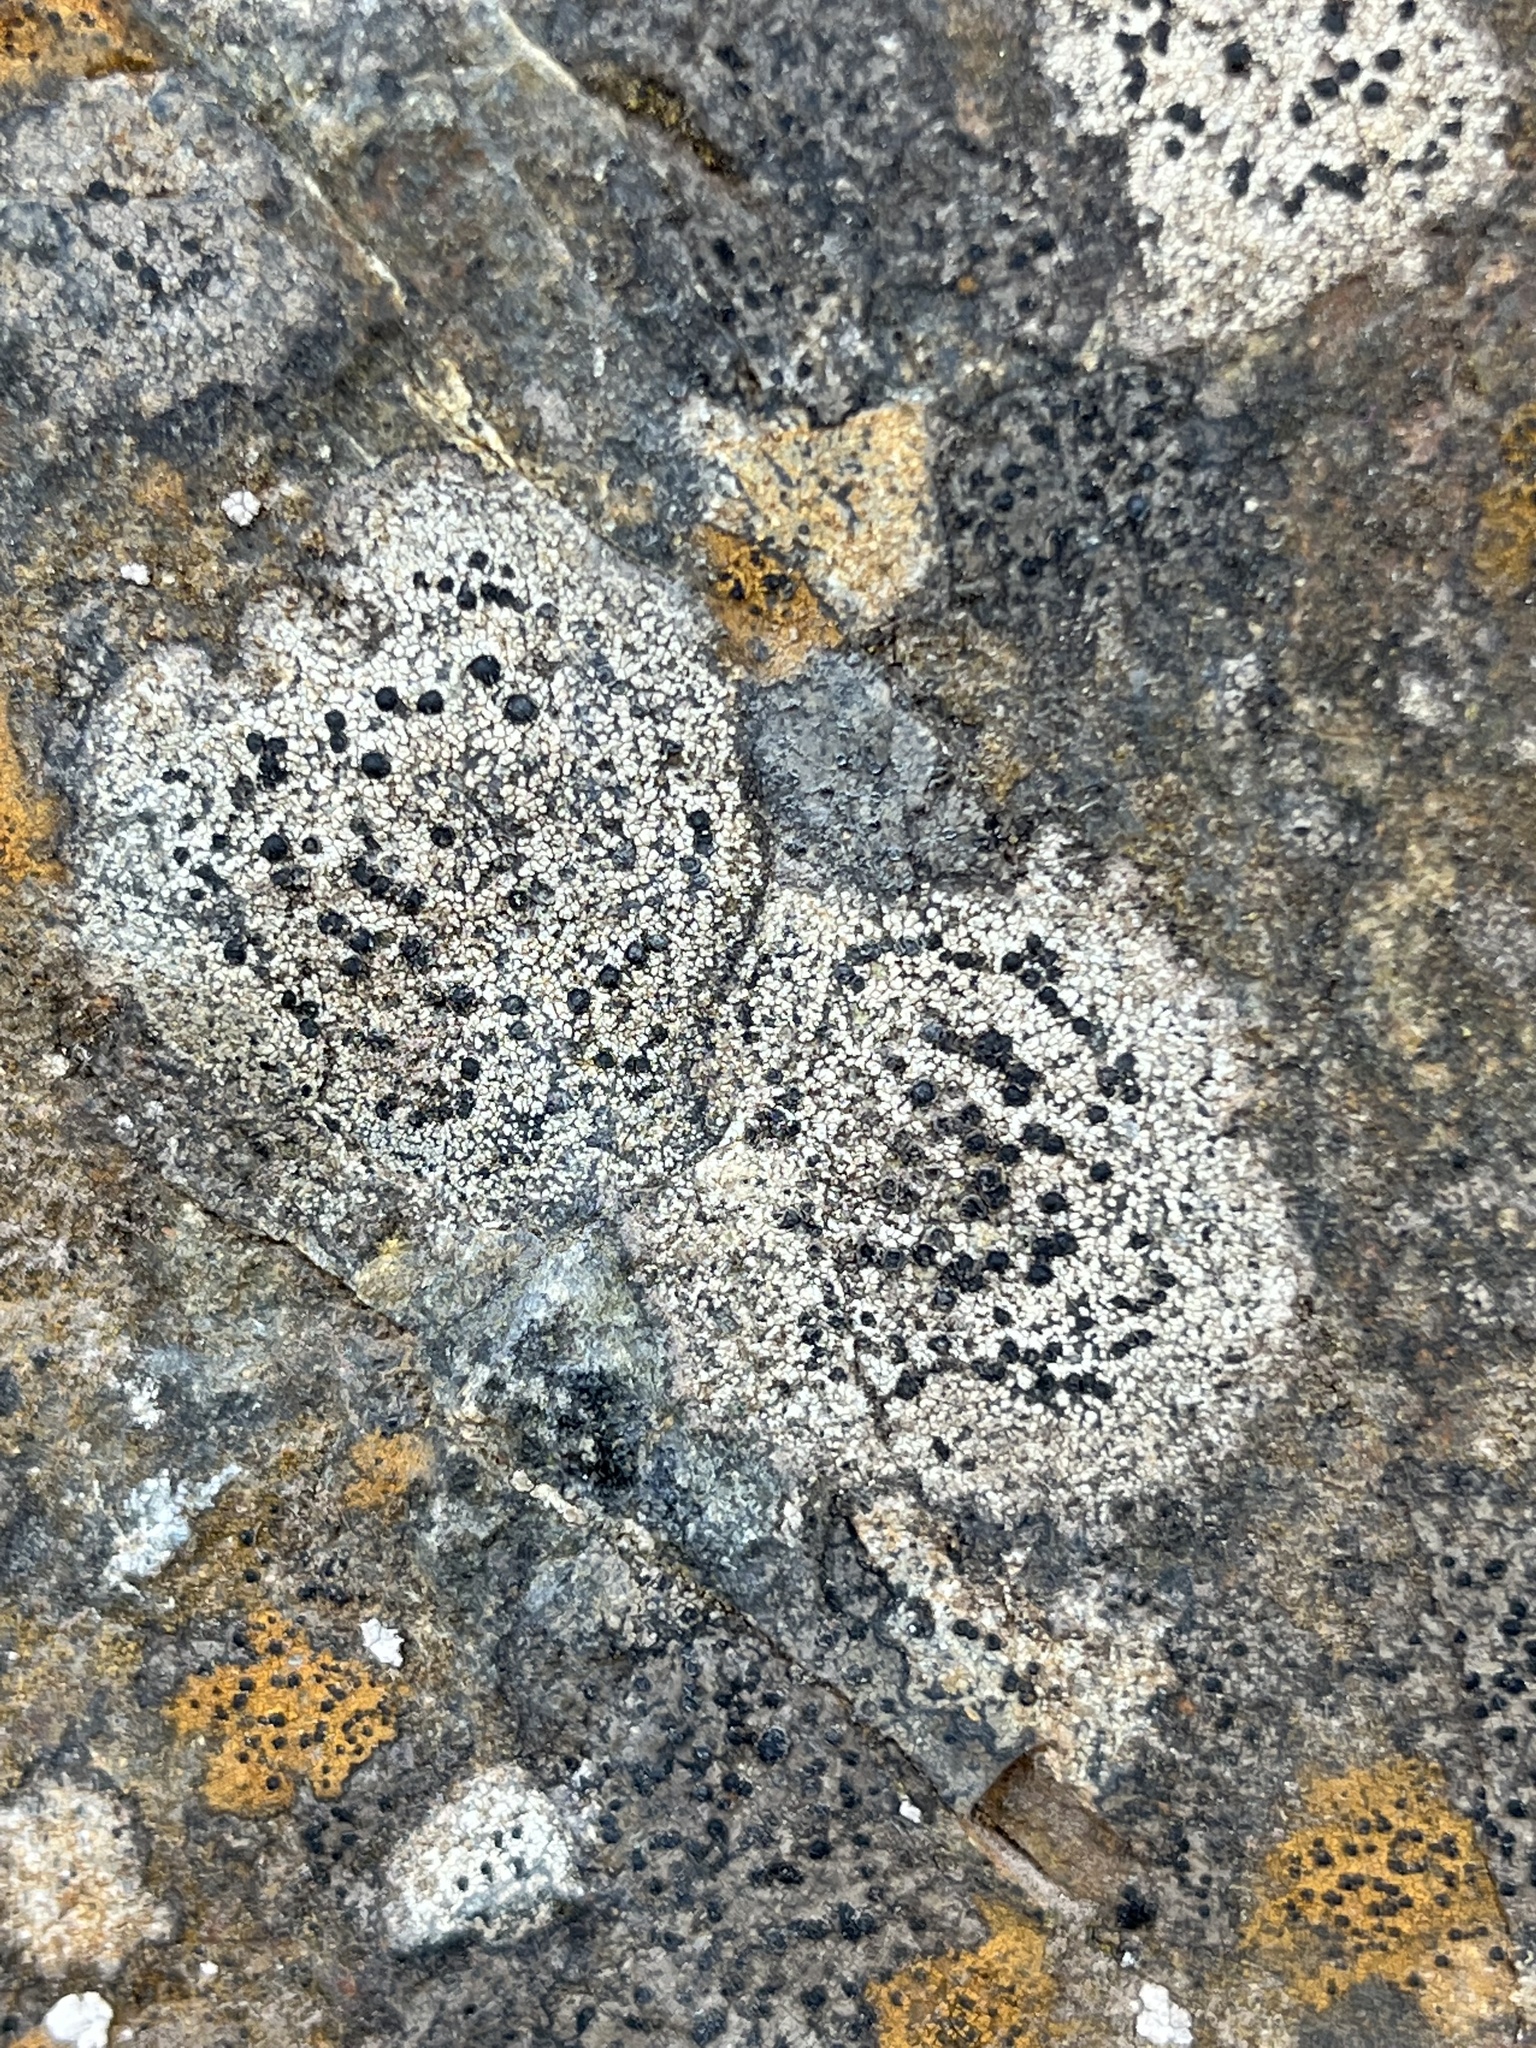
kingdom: Fungi
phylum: Ascomycota
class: Lecanoromycetes
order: Lecideales
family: Lecideaceae
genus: Porpidia
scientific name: Porpidia crustulata
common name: Concentric boulder lichen
